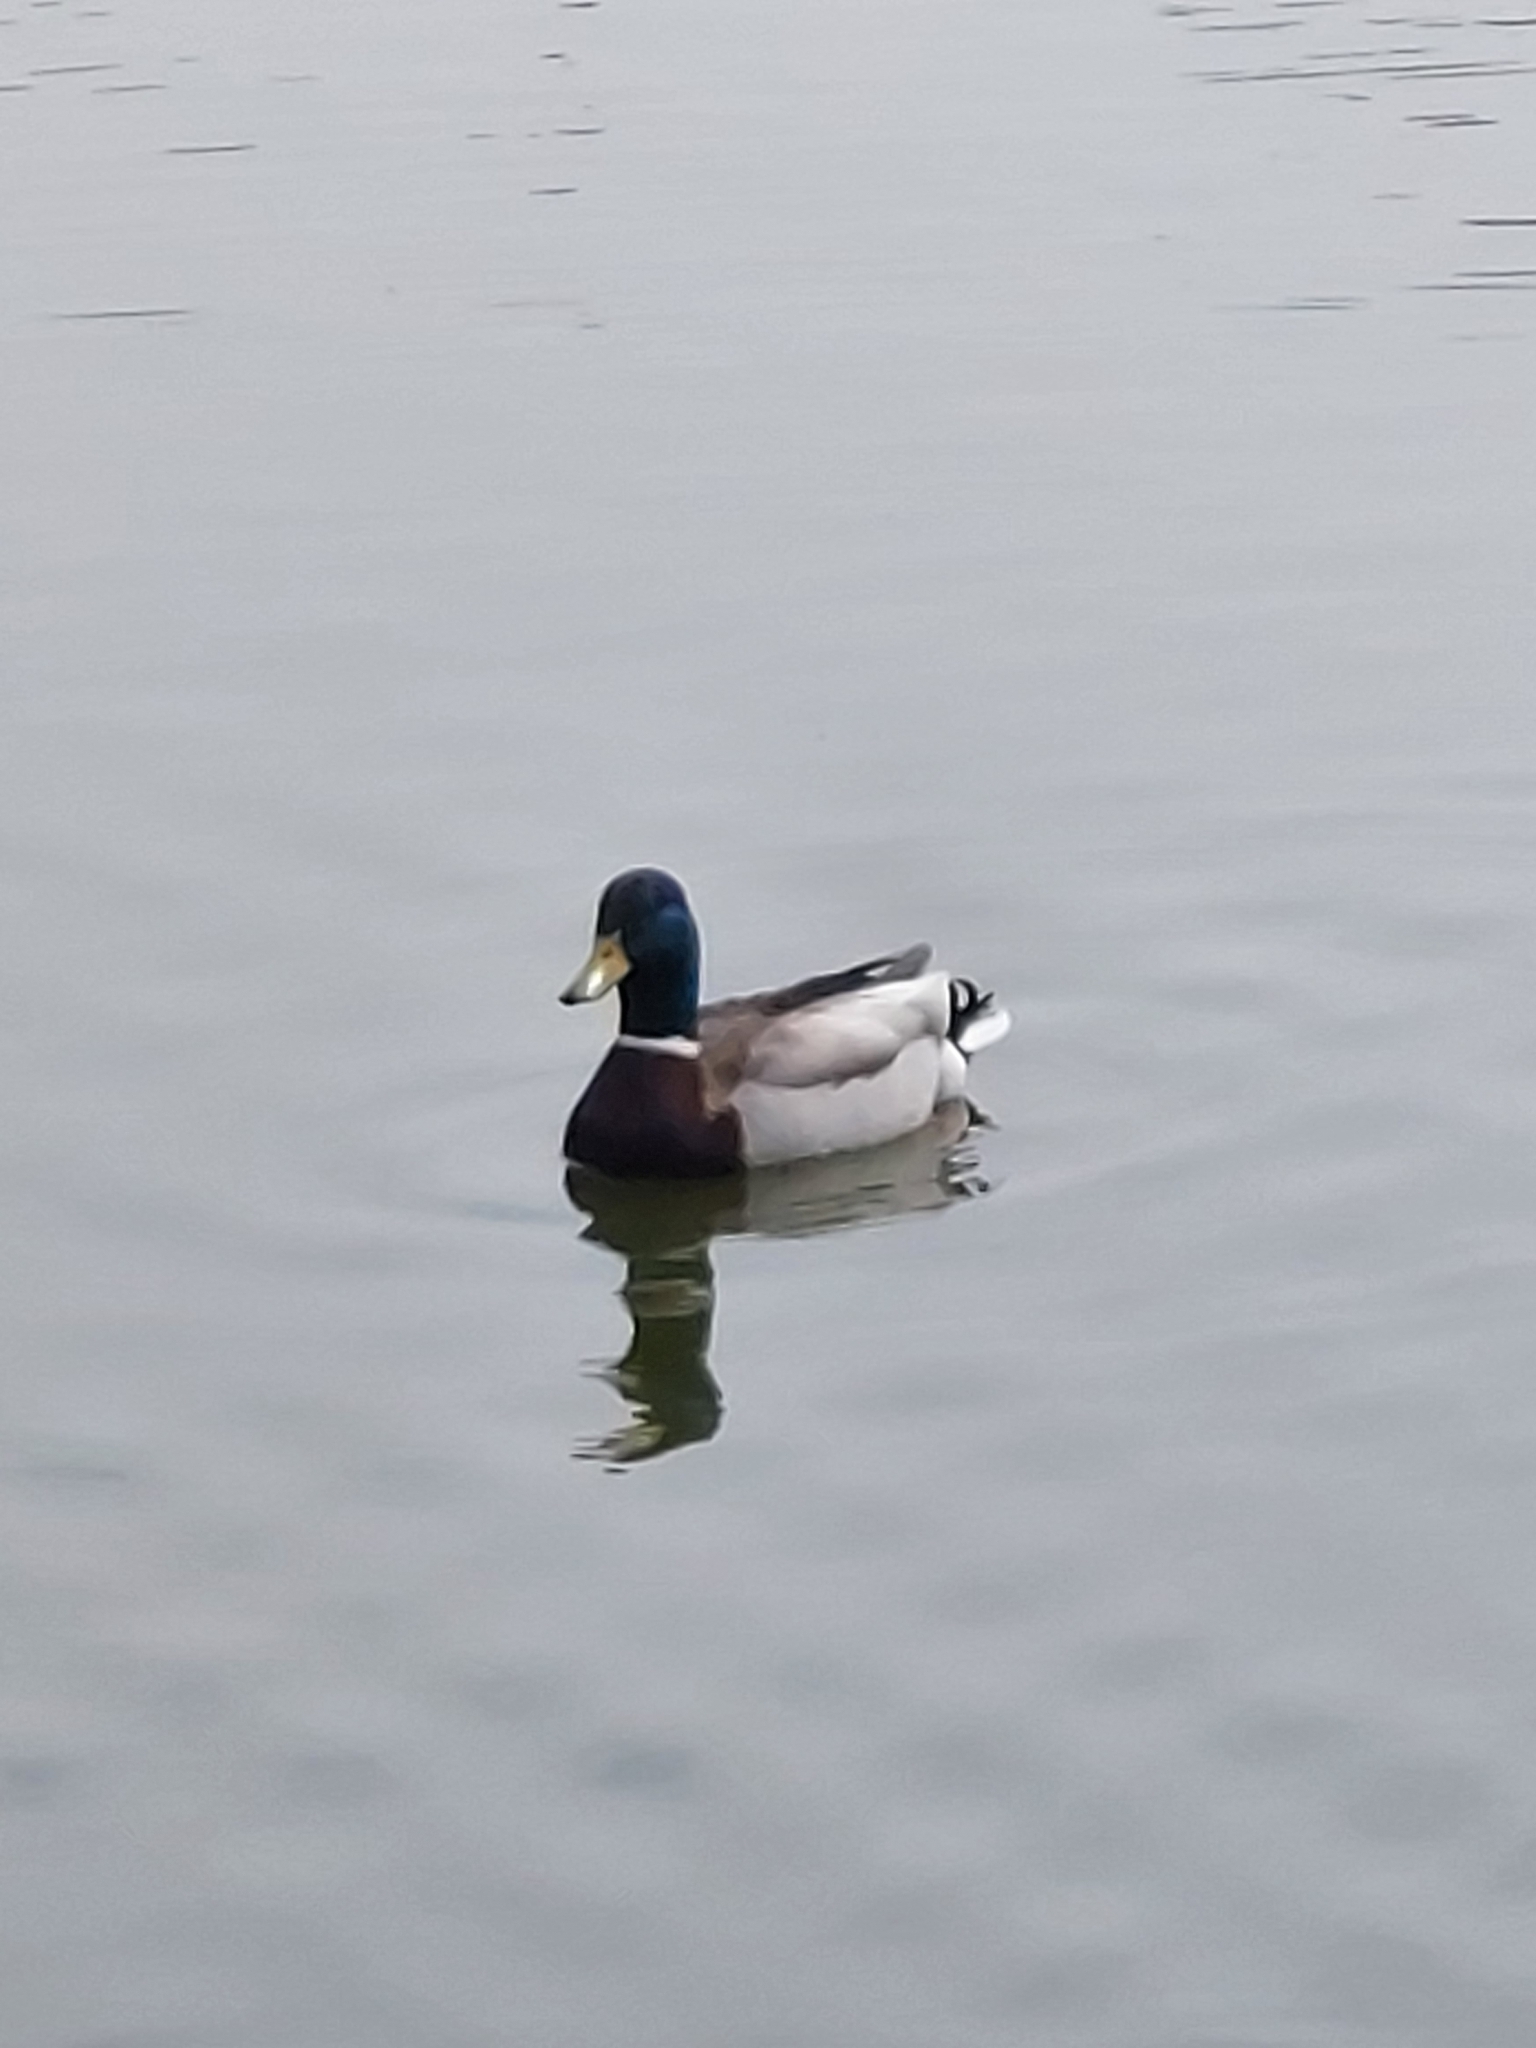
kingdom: Animalia
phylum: Chordata
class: Aves
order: Anseriformes
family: Anatidae
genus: Anas
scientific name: Anas platyrhynchos
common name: Mallard
